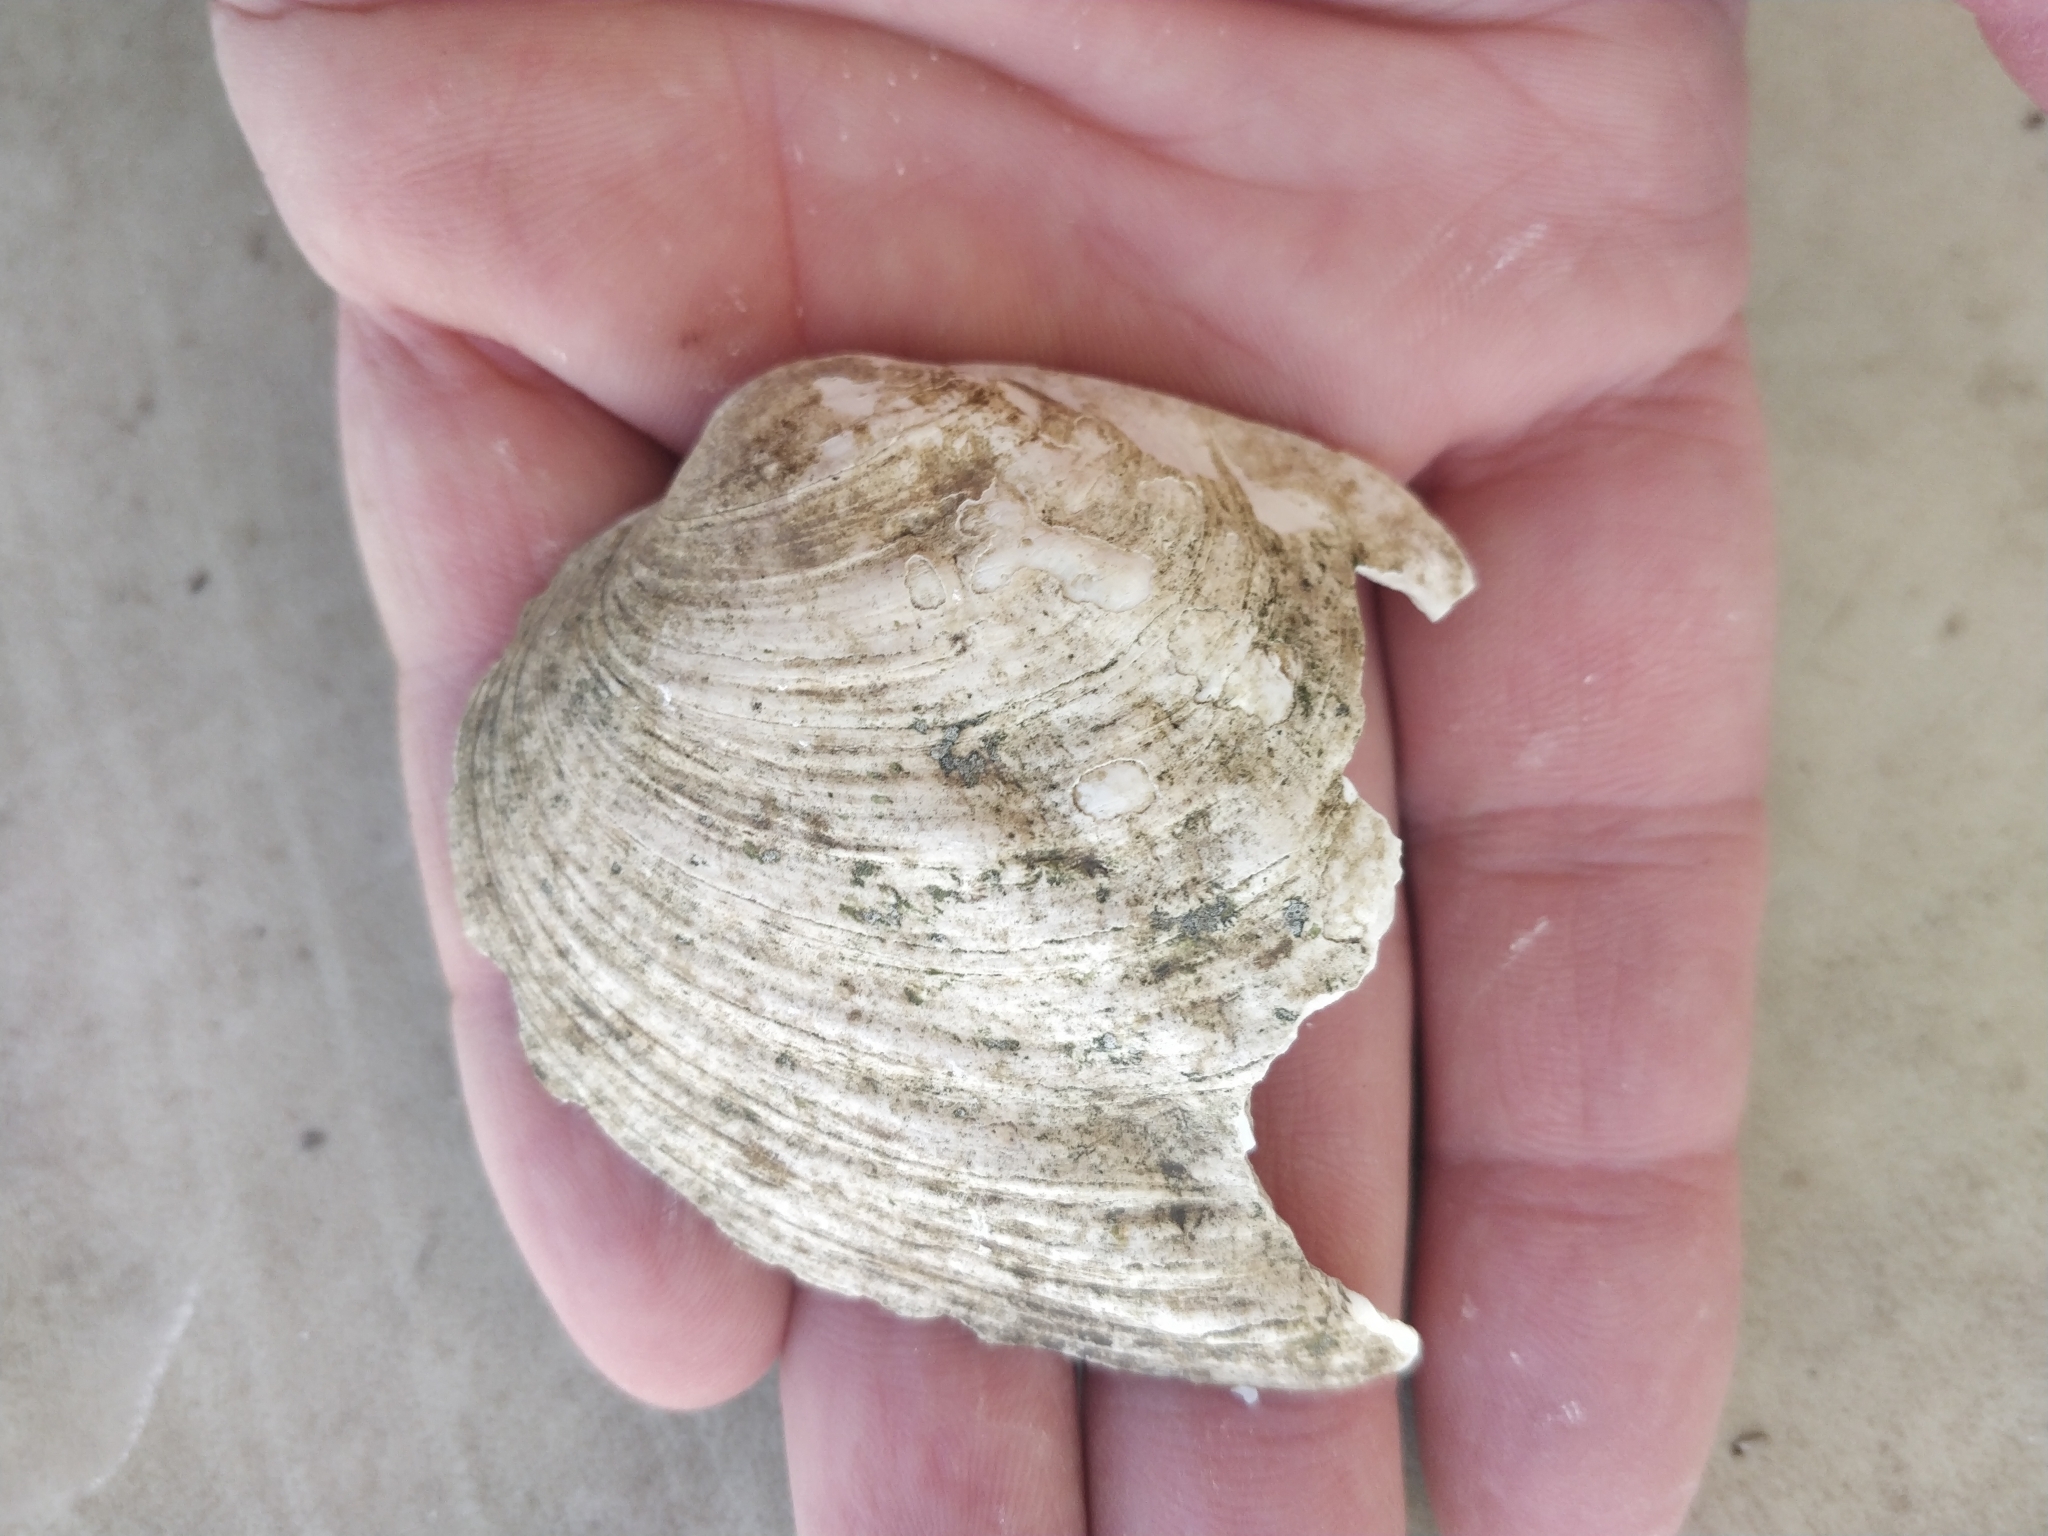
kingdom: Animalia
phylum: Mollusca
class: Bivalvia
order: Unionida
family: Unionidae
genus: Amblema
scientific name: Amblema plicata
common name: Threeridge
